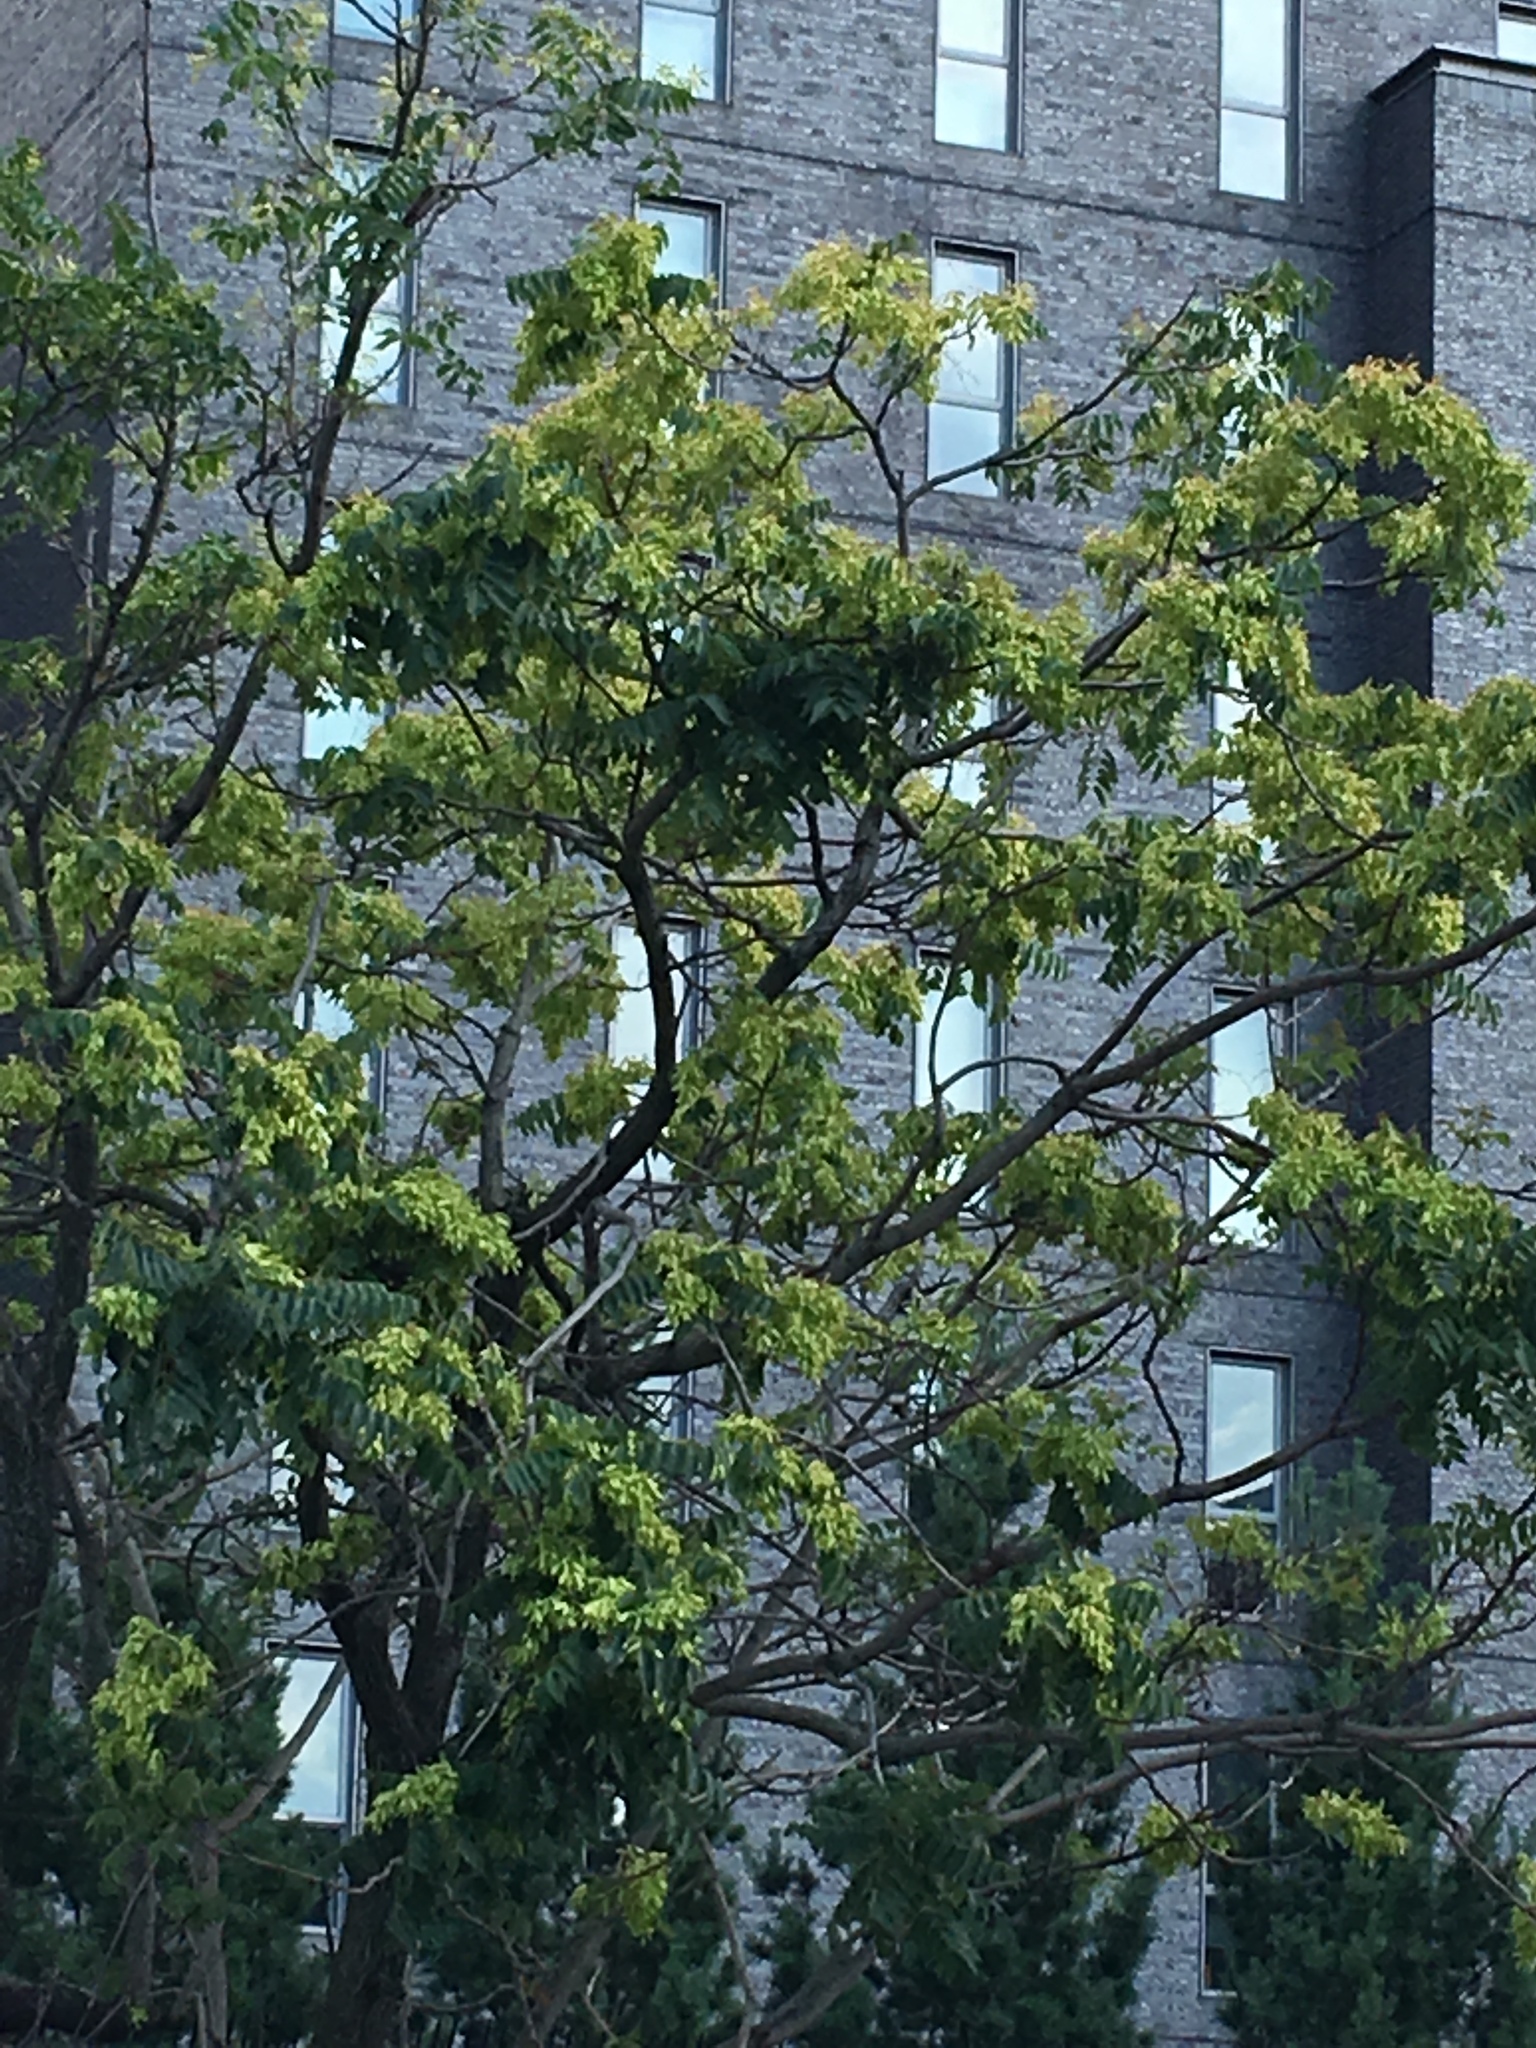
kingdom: Plantae
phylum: Tracheophyta
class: Magnoliopsida
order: Sapindales
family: Simaroubaceae
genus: Ailanthus
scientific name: Ailanthus altissima
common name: Tree-of-heaven
